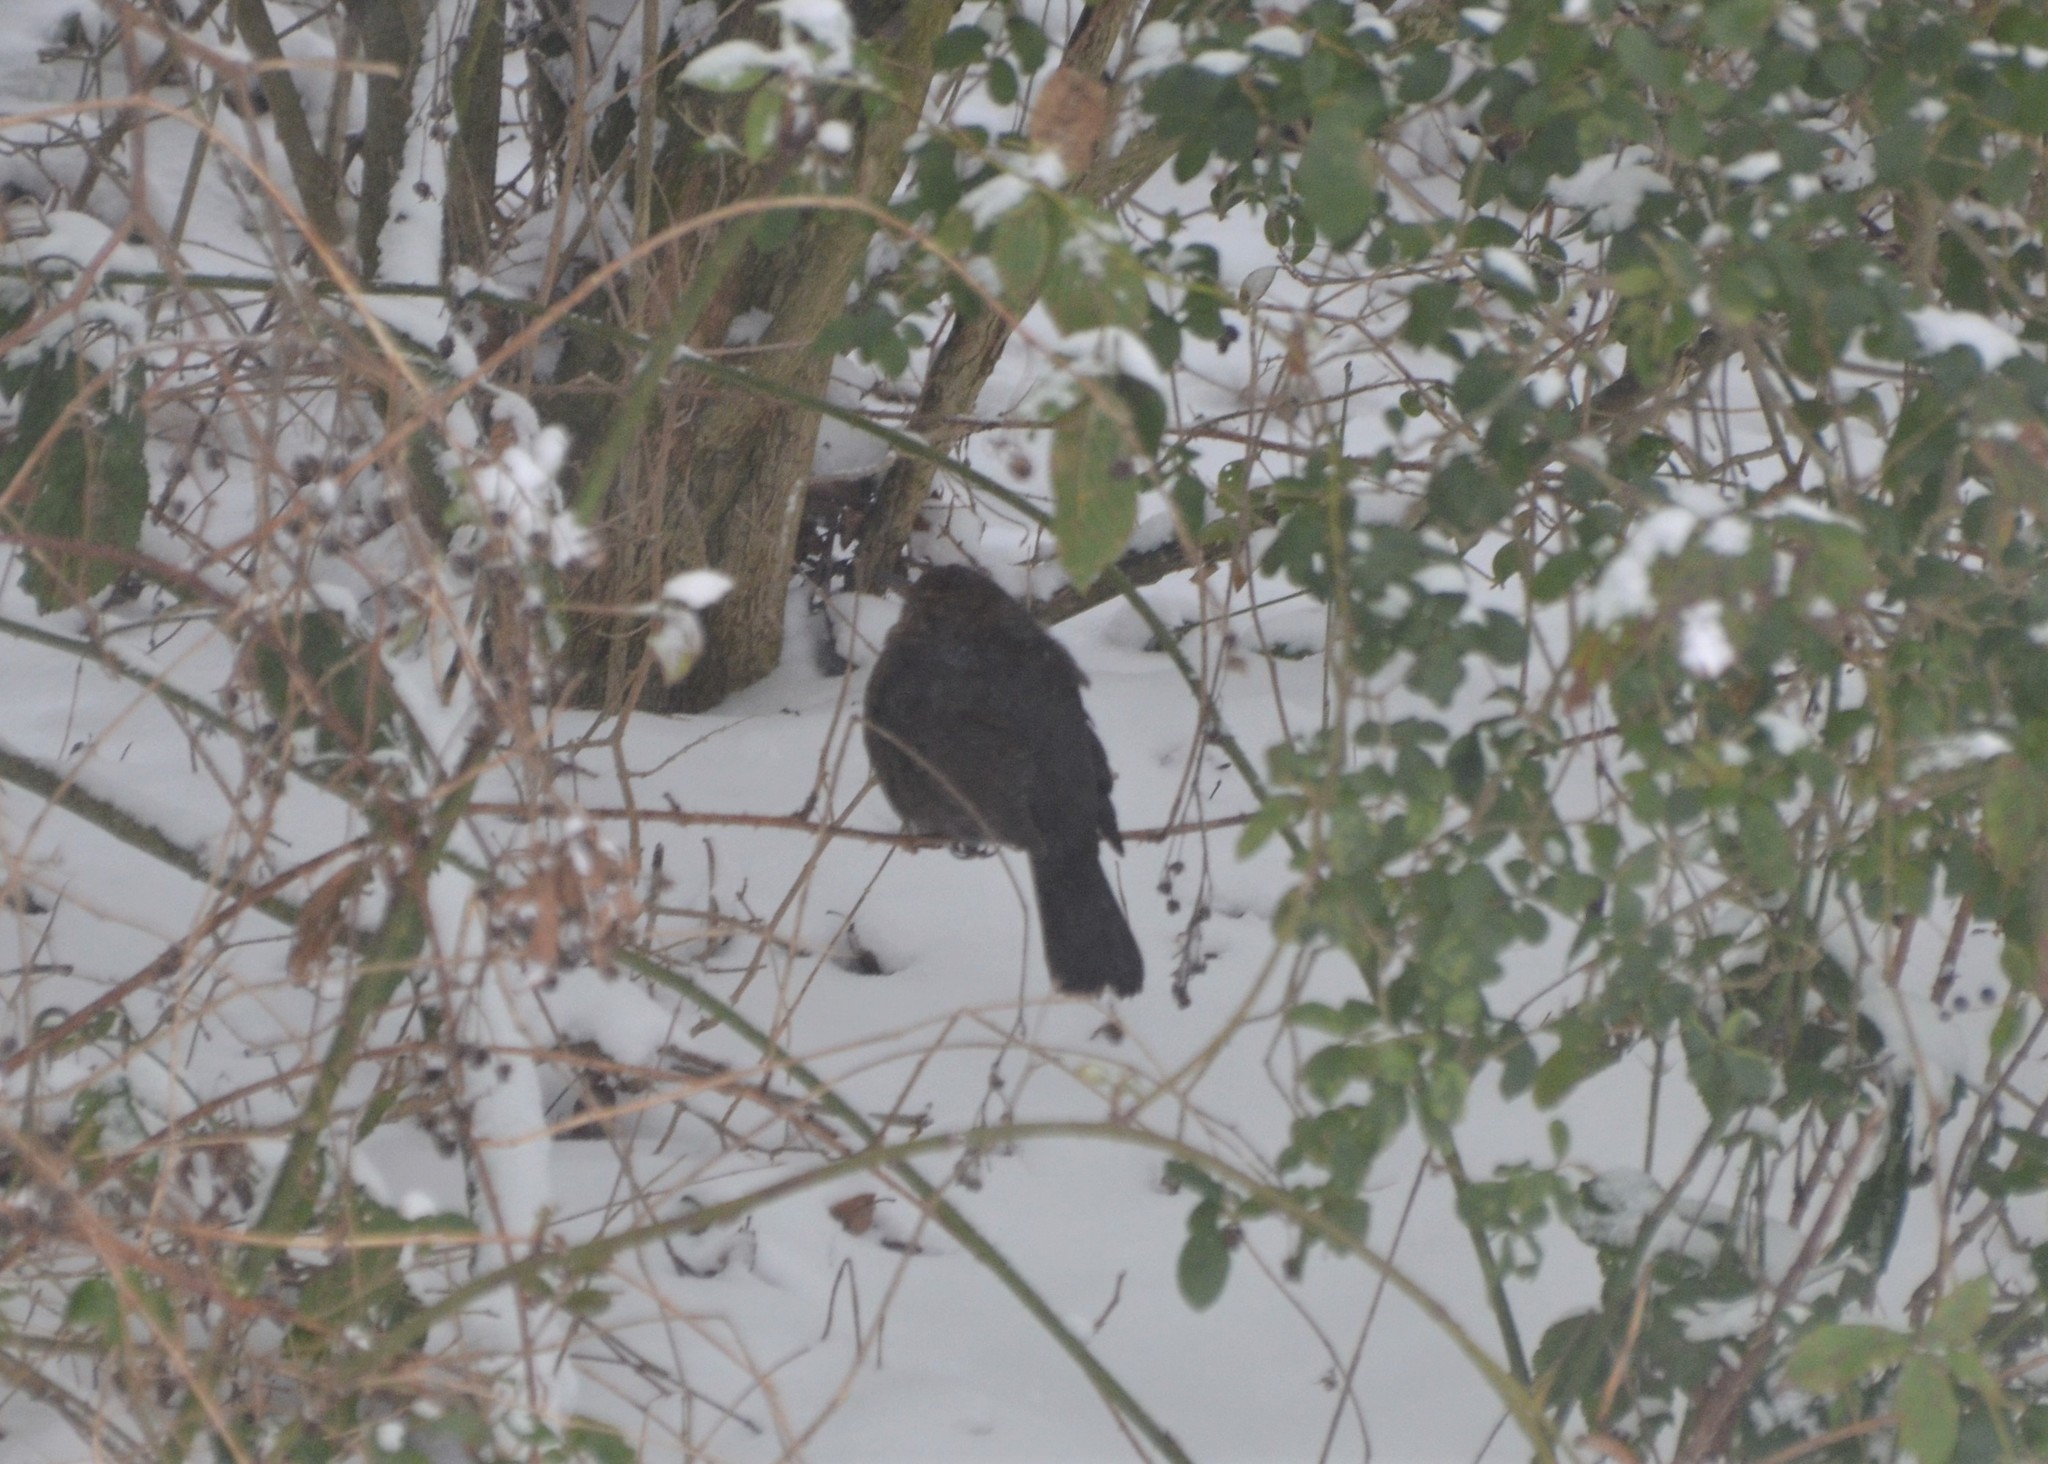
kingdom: Animalia
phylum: Chordata
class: Aves
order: Passeriformes
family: Turdidae
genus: Turdus
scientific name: Turdus merula
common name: Common blackbird
